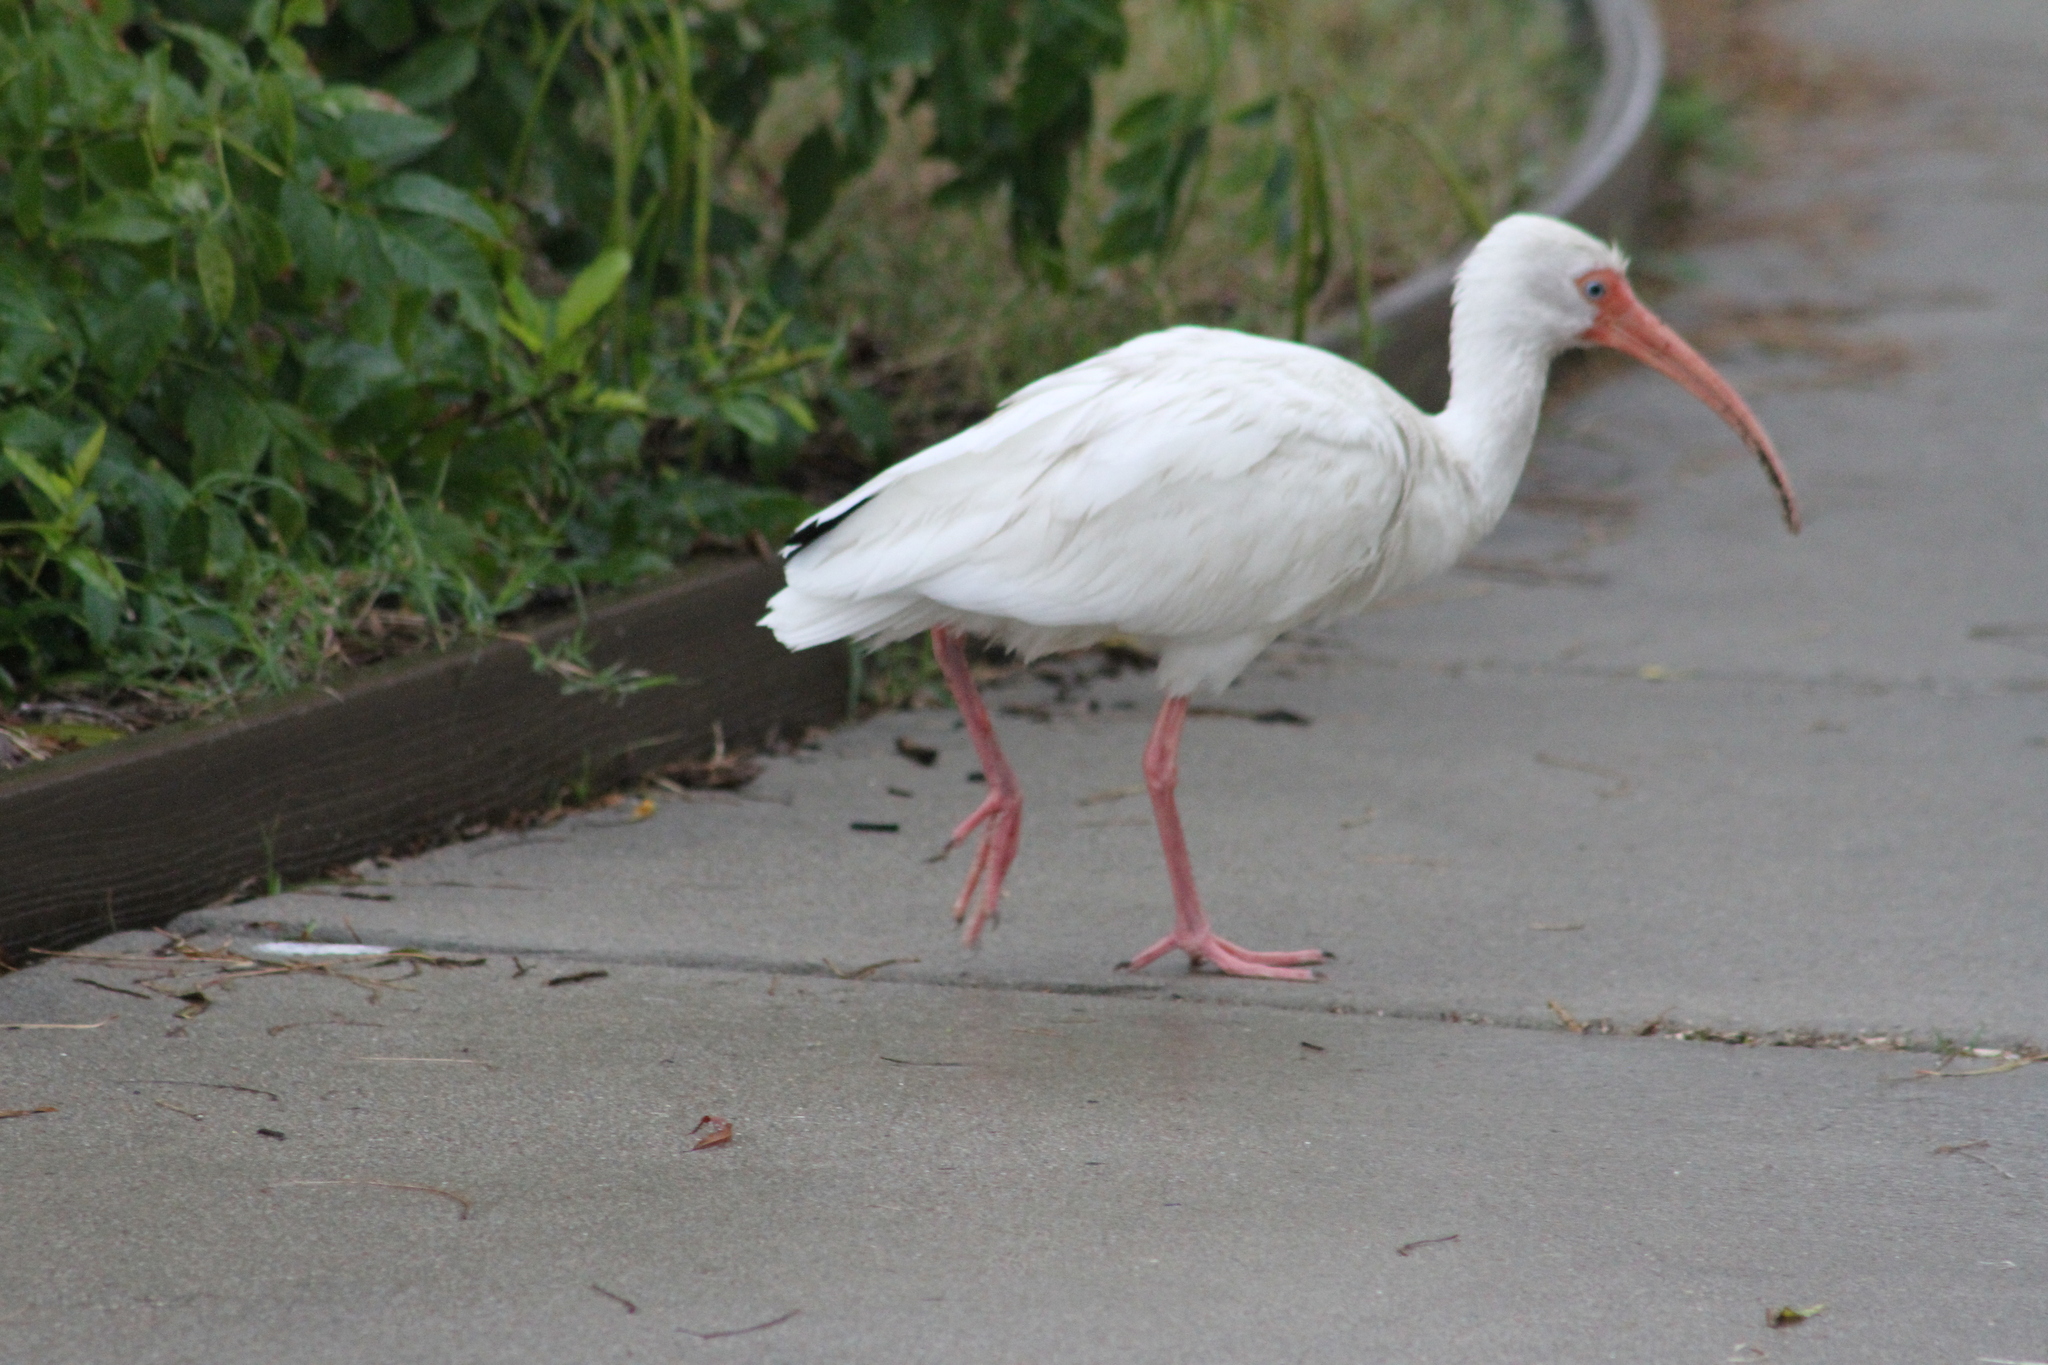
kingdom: Animalia
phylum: Chordata
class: Aves
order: Pelecaniformes
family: Threskiornithidae
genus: Eudocimus
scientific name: Eudocimus albus
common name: White ibis
